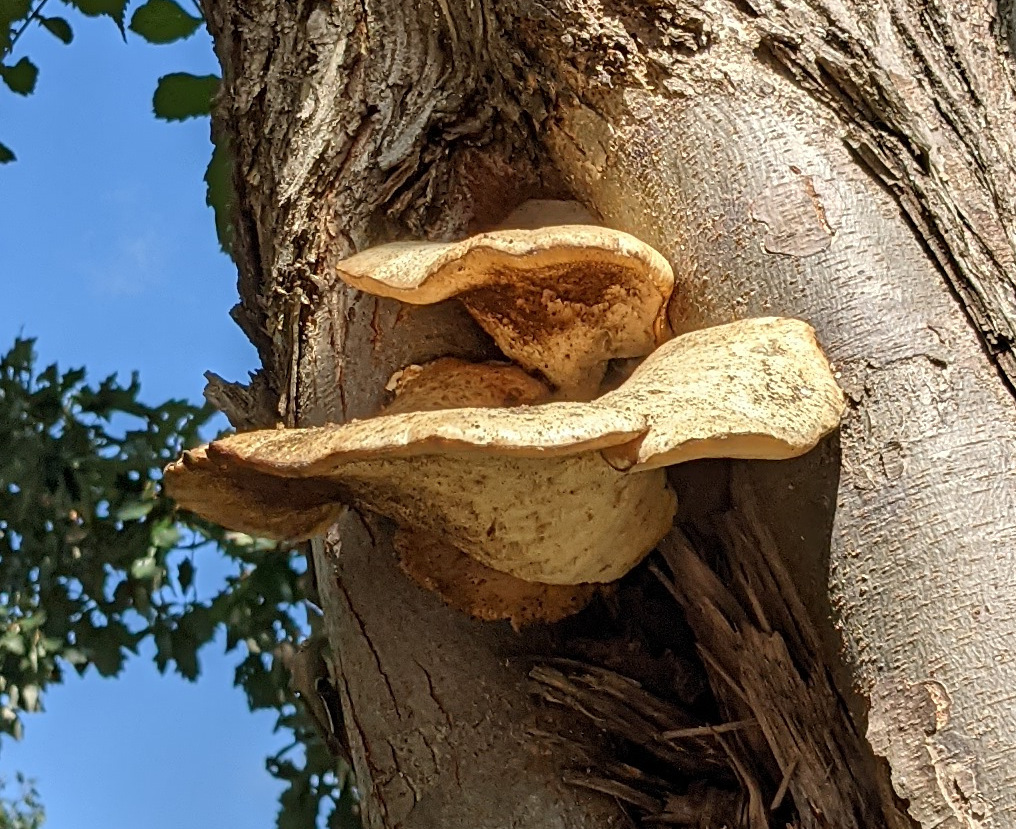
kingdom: Fungi
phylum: Basidiomycota
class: Agaricomycetes
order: Polyporales
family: Polyporaceae
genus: Cerioporus
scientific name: Cerioporus squamosus
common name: Dryad's saddle
